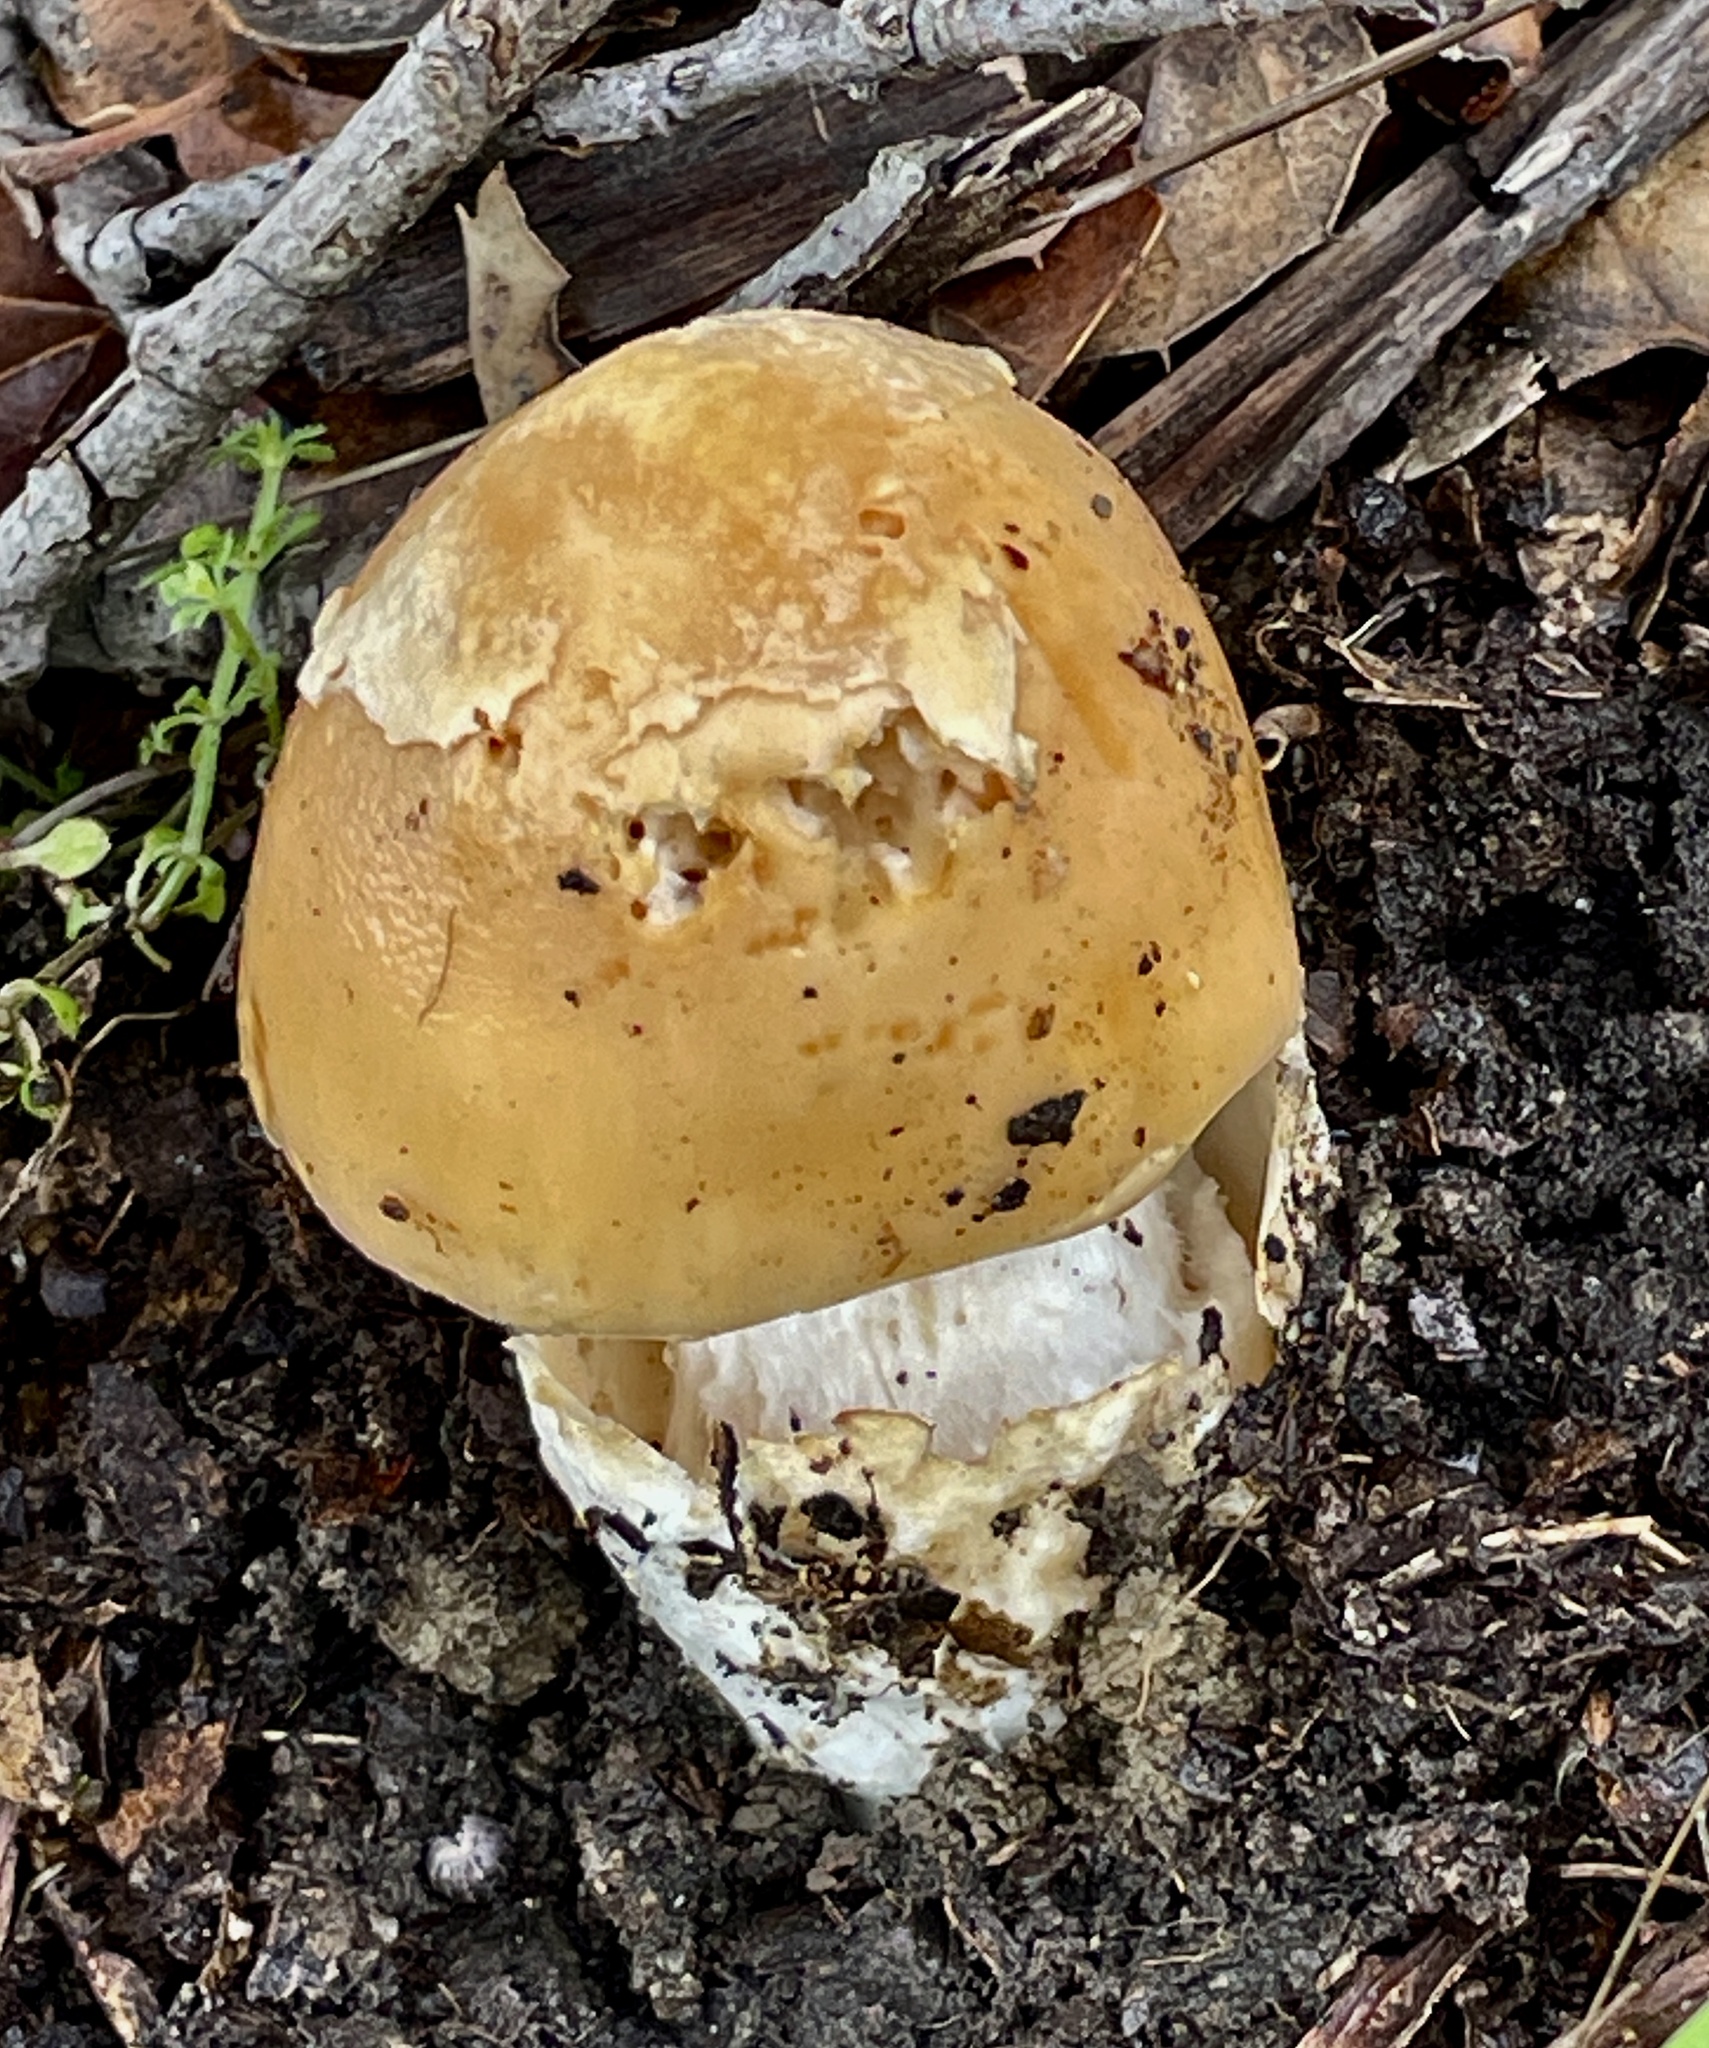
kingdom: Fungi
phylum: Basidiomycota
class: Agaricomycetes
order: Agaricales
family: Amanitaceae
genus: Amanita
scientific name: Amanita velosa
